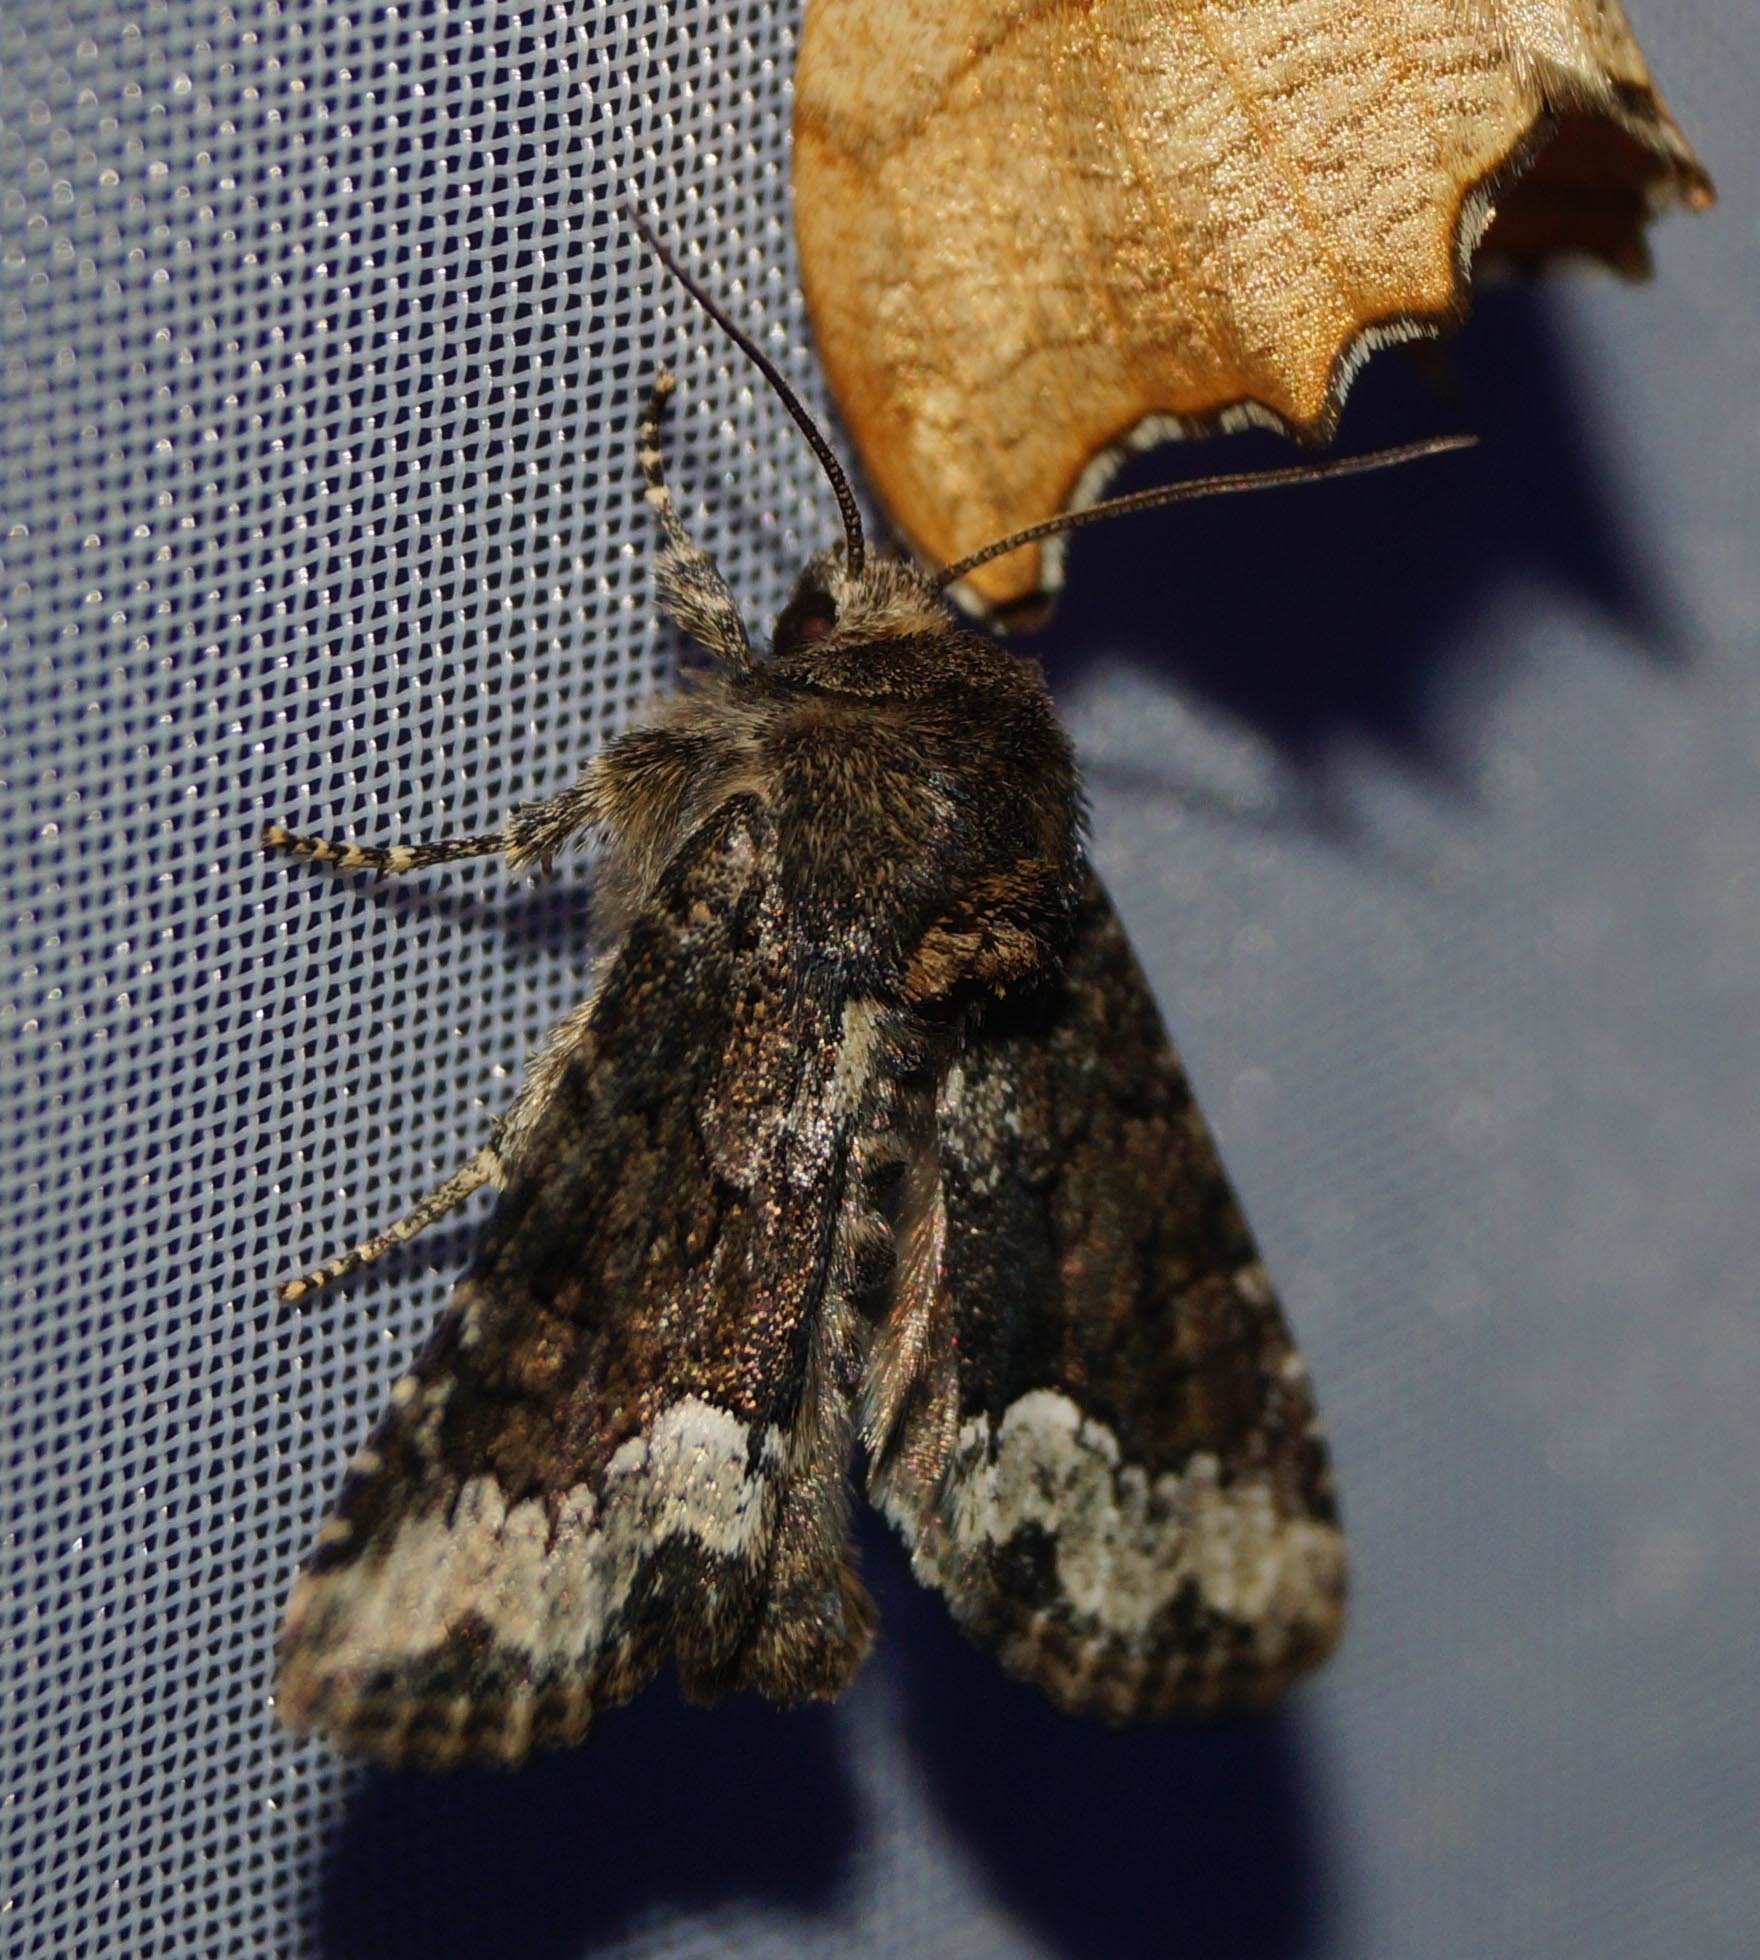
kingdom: Animalia
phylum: Arthropoda
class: Insecta
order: Lepidoptera
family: Noctuidae
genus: Oligia
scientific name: Oligia strigilis
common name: Marbled minor
